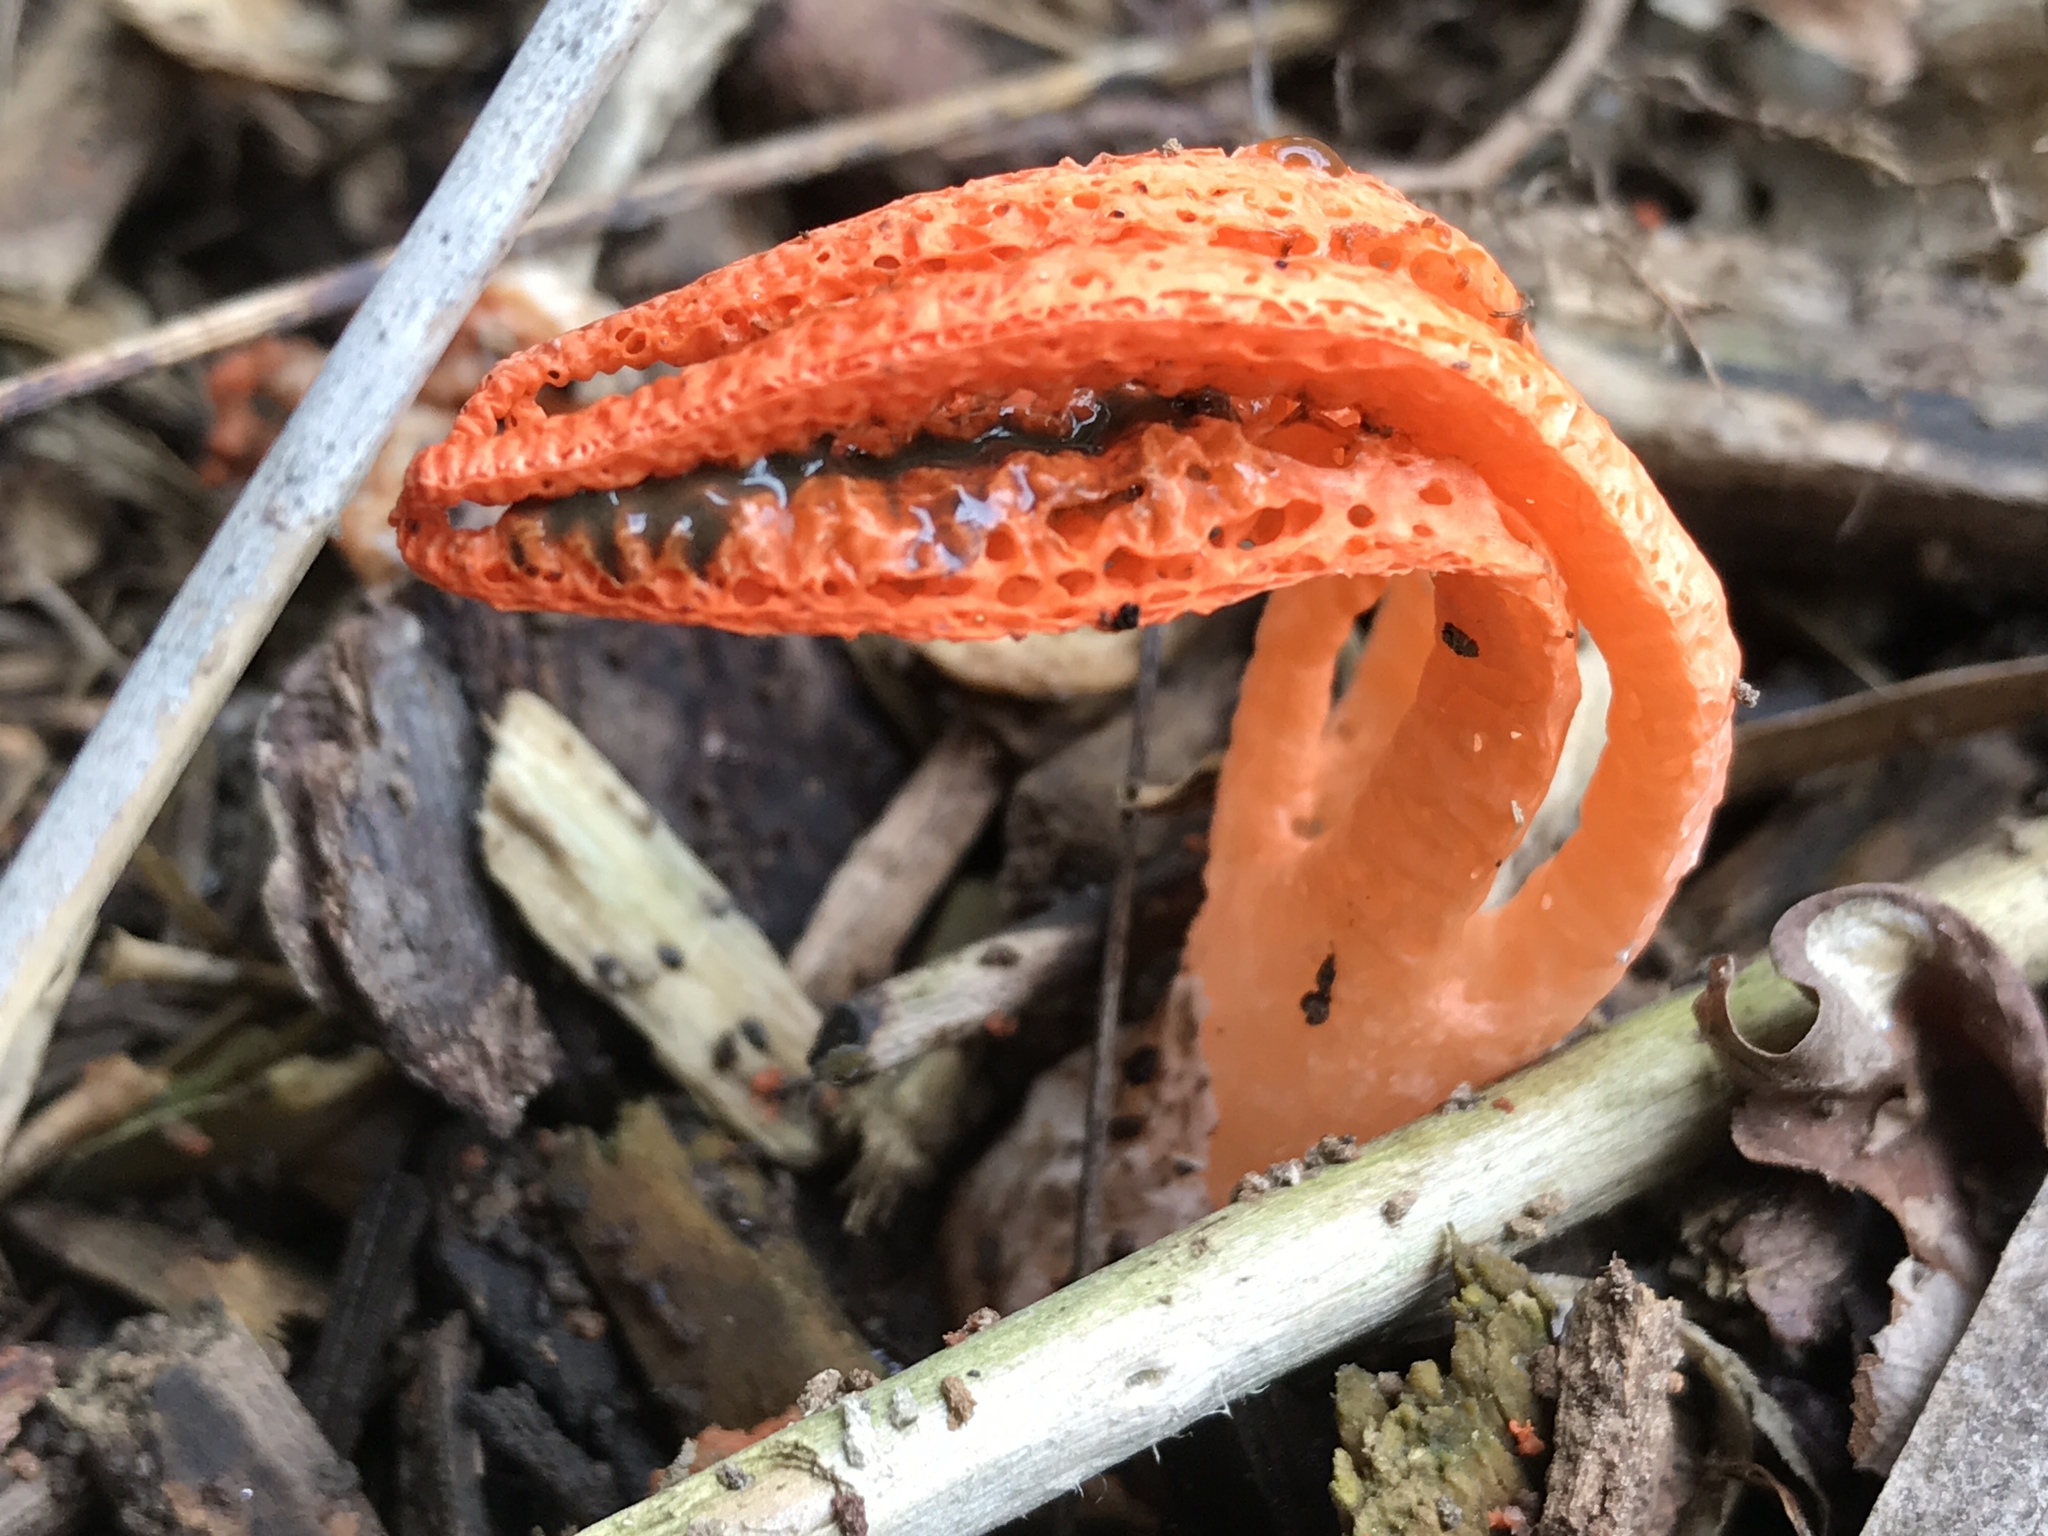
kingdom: Fungi
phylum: Basidiomycota
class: Agaricomycetes
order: Phallales
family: Phallaceae
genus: Pseudocolus
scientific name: Pseudocolus fusiformis
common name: Stinky squid
